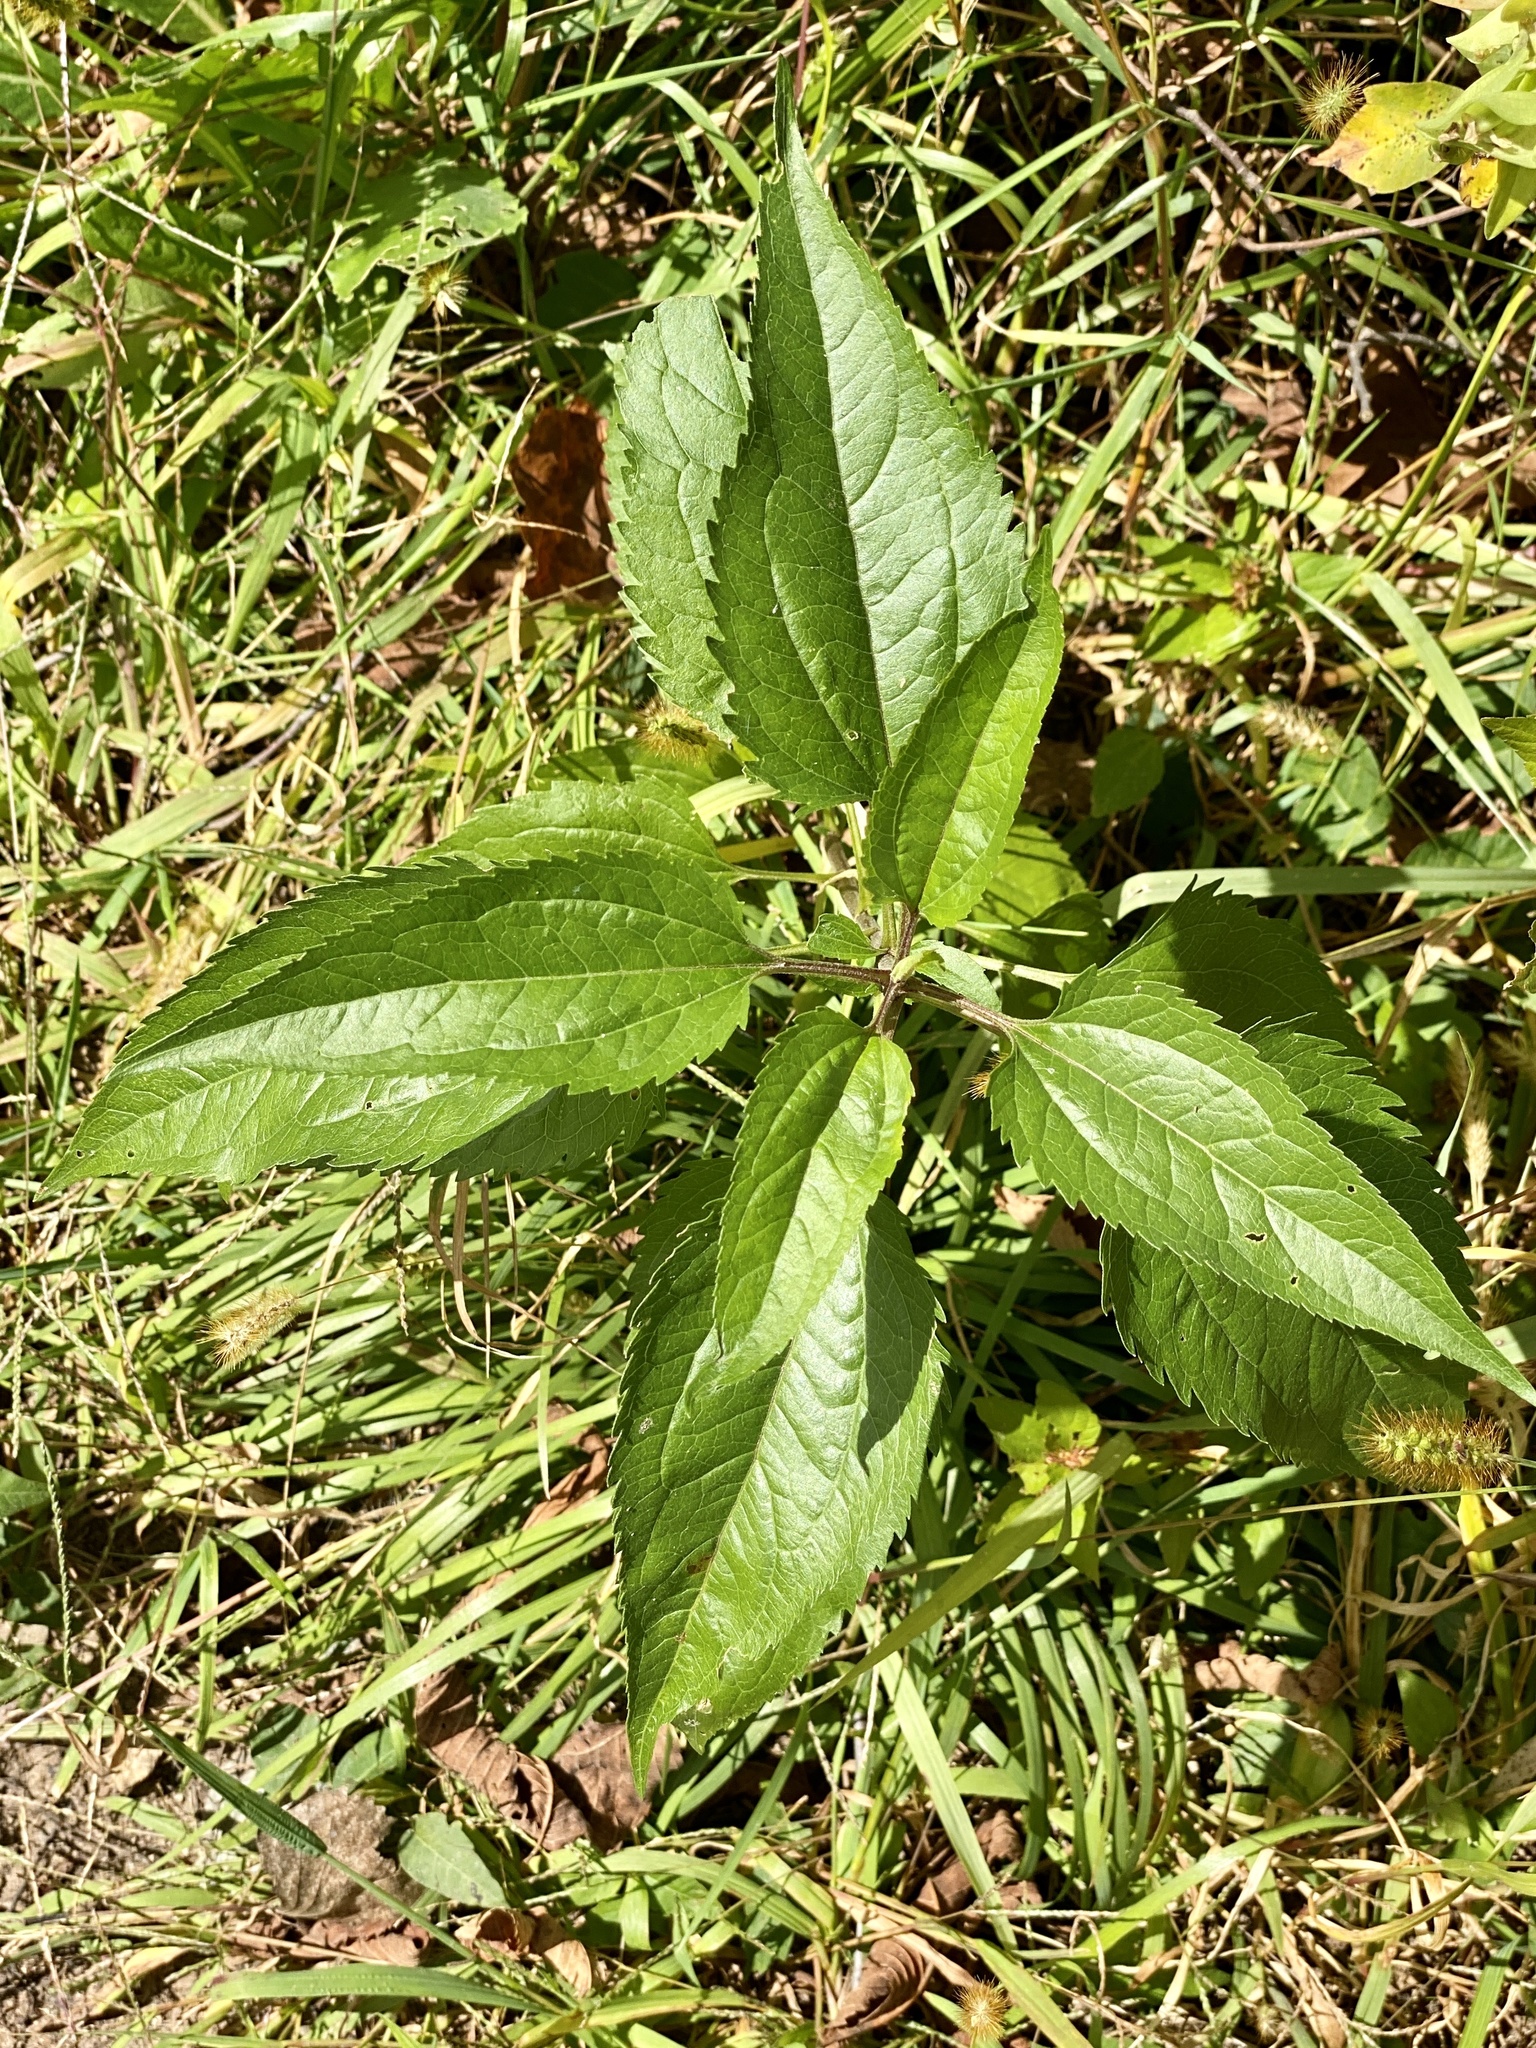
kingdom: Plantae
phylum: Tracheophyta
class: Magnoliopsida
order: Asterales
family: Asteraceae
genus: Eupatorium
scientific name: Eupatorium serotinum
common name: Late boneset
